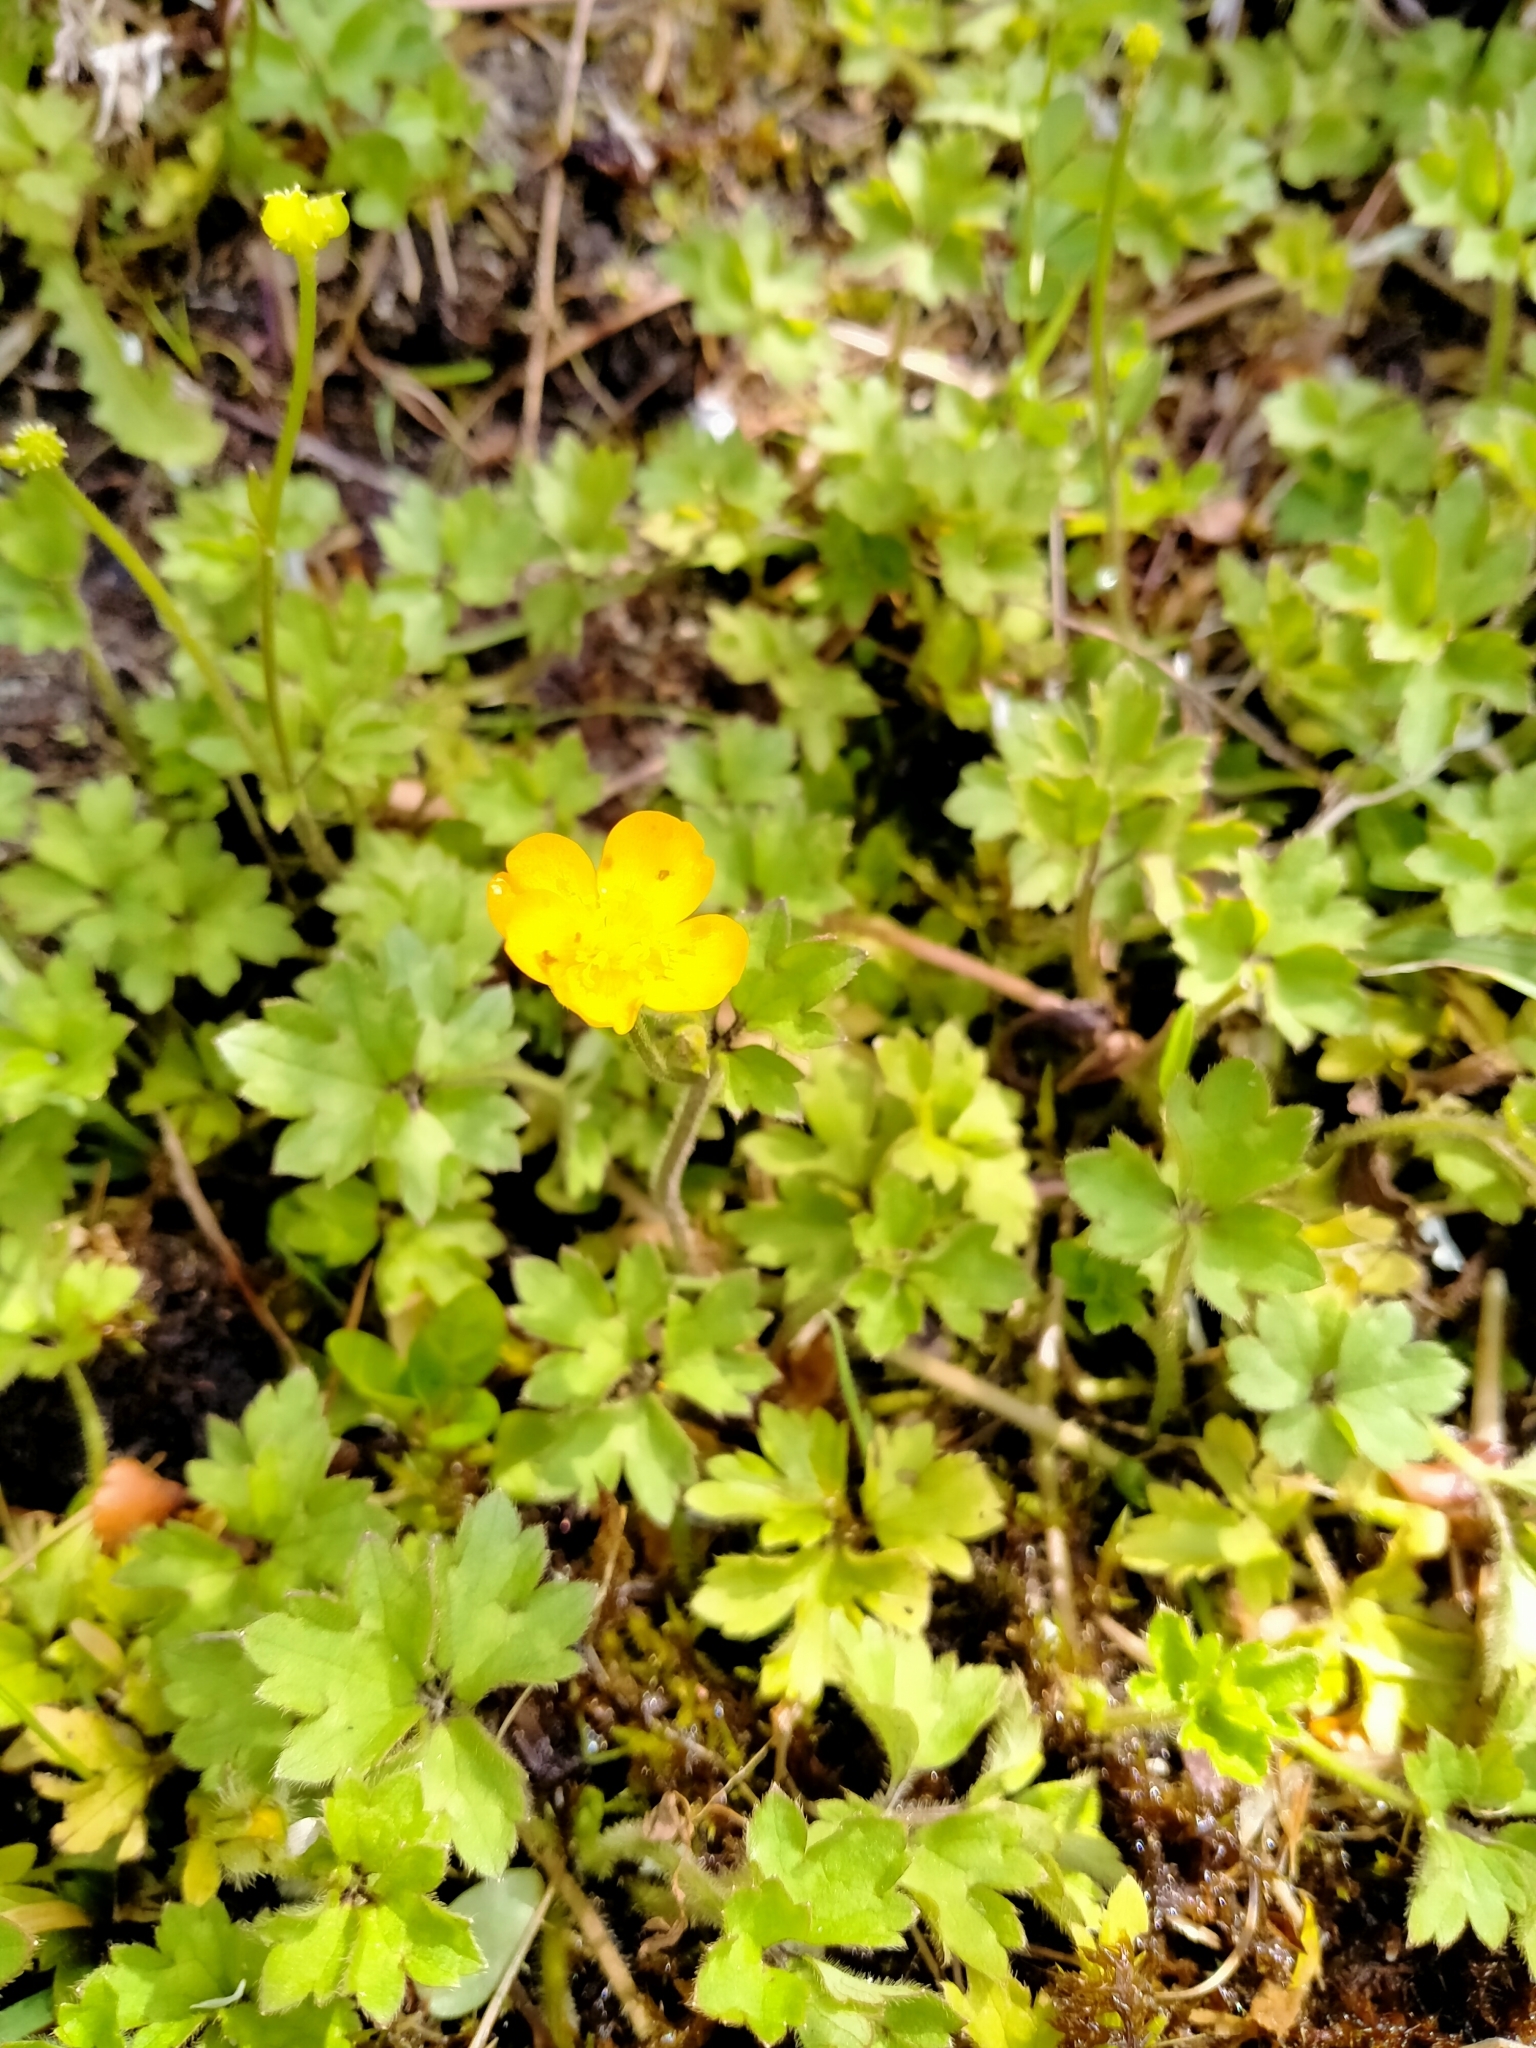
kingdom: Plantae
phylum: Tracheophyta
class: Magnoliopsida
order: Ranunculales
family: Ranunculaceae
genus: Ranunculus
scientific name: Ranunculus repens
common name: Creeping buttercup
